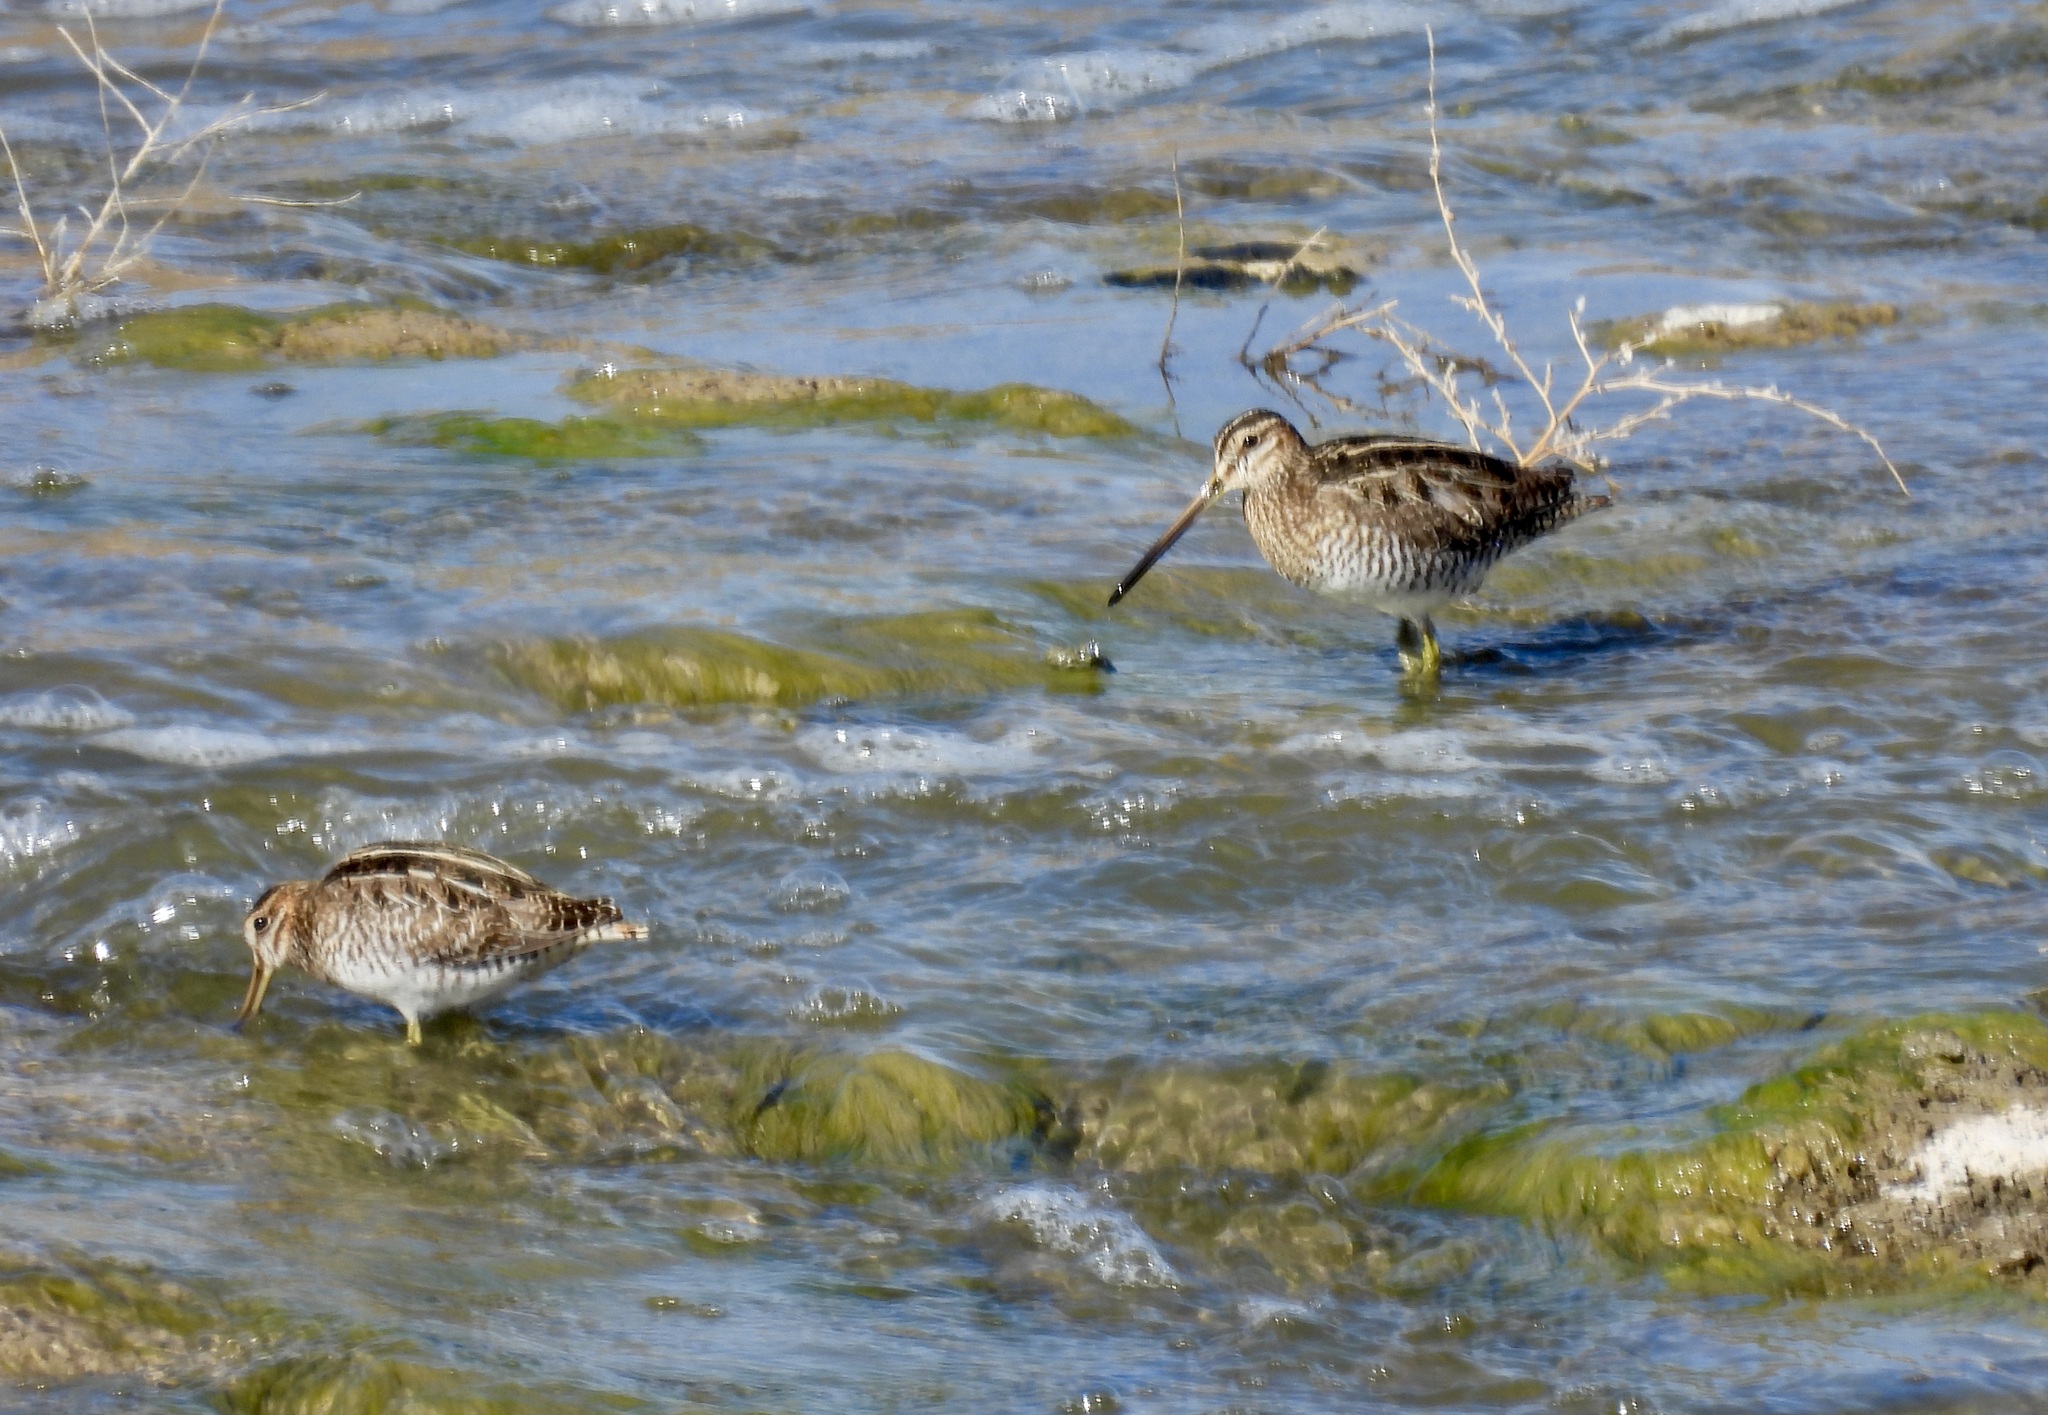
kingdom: Animalia
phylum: Chordata
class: Aves
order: Charadriiformes
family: Scolopacidae
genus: Gallinago
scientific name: Gallinago delicata
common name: Wilson's snipe
